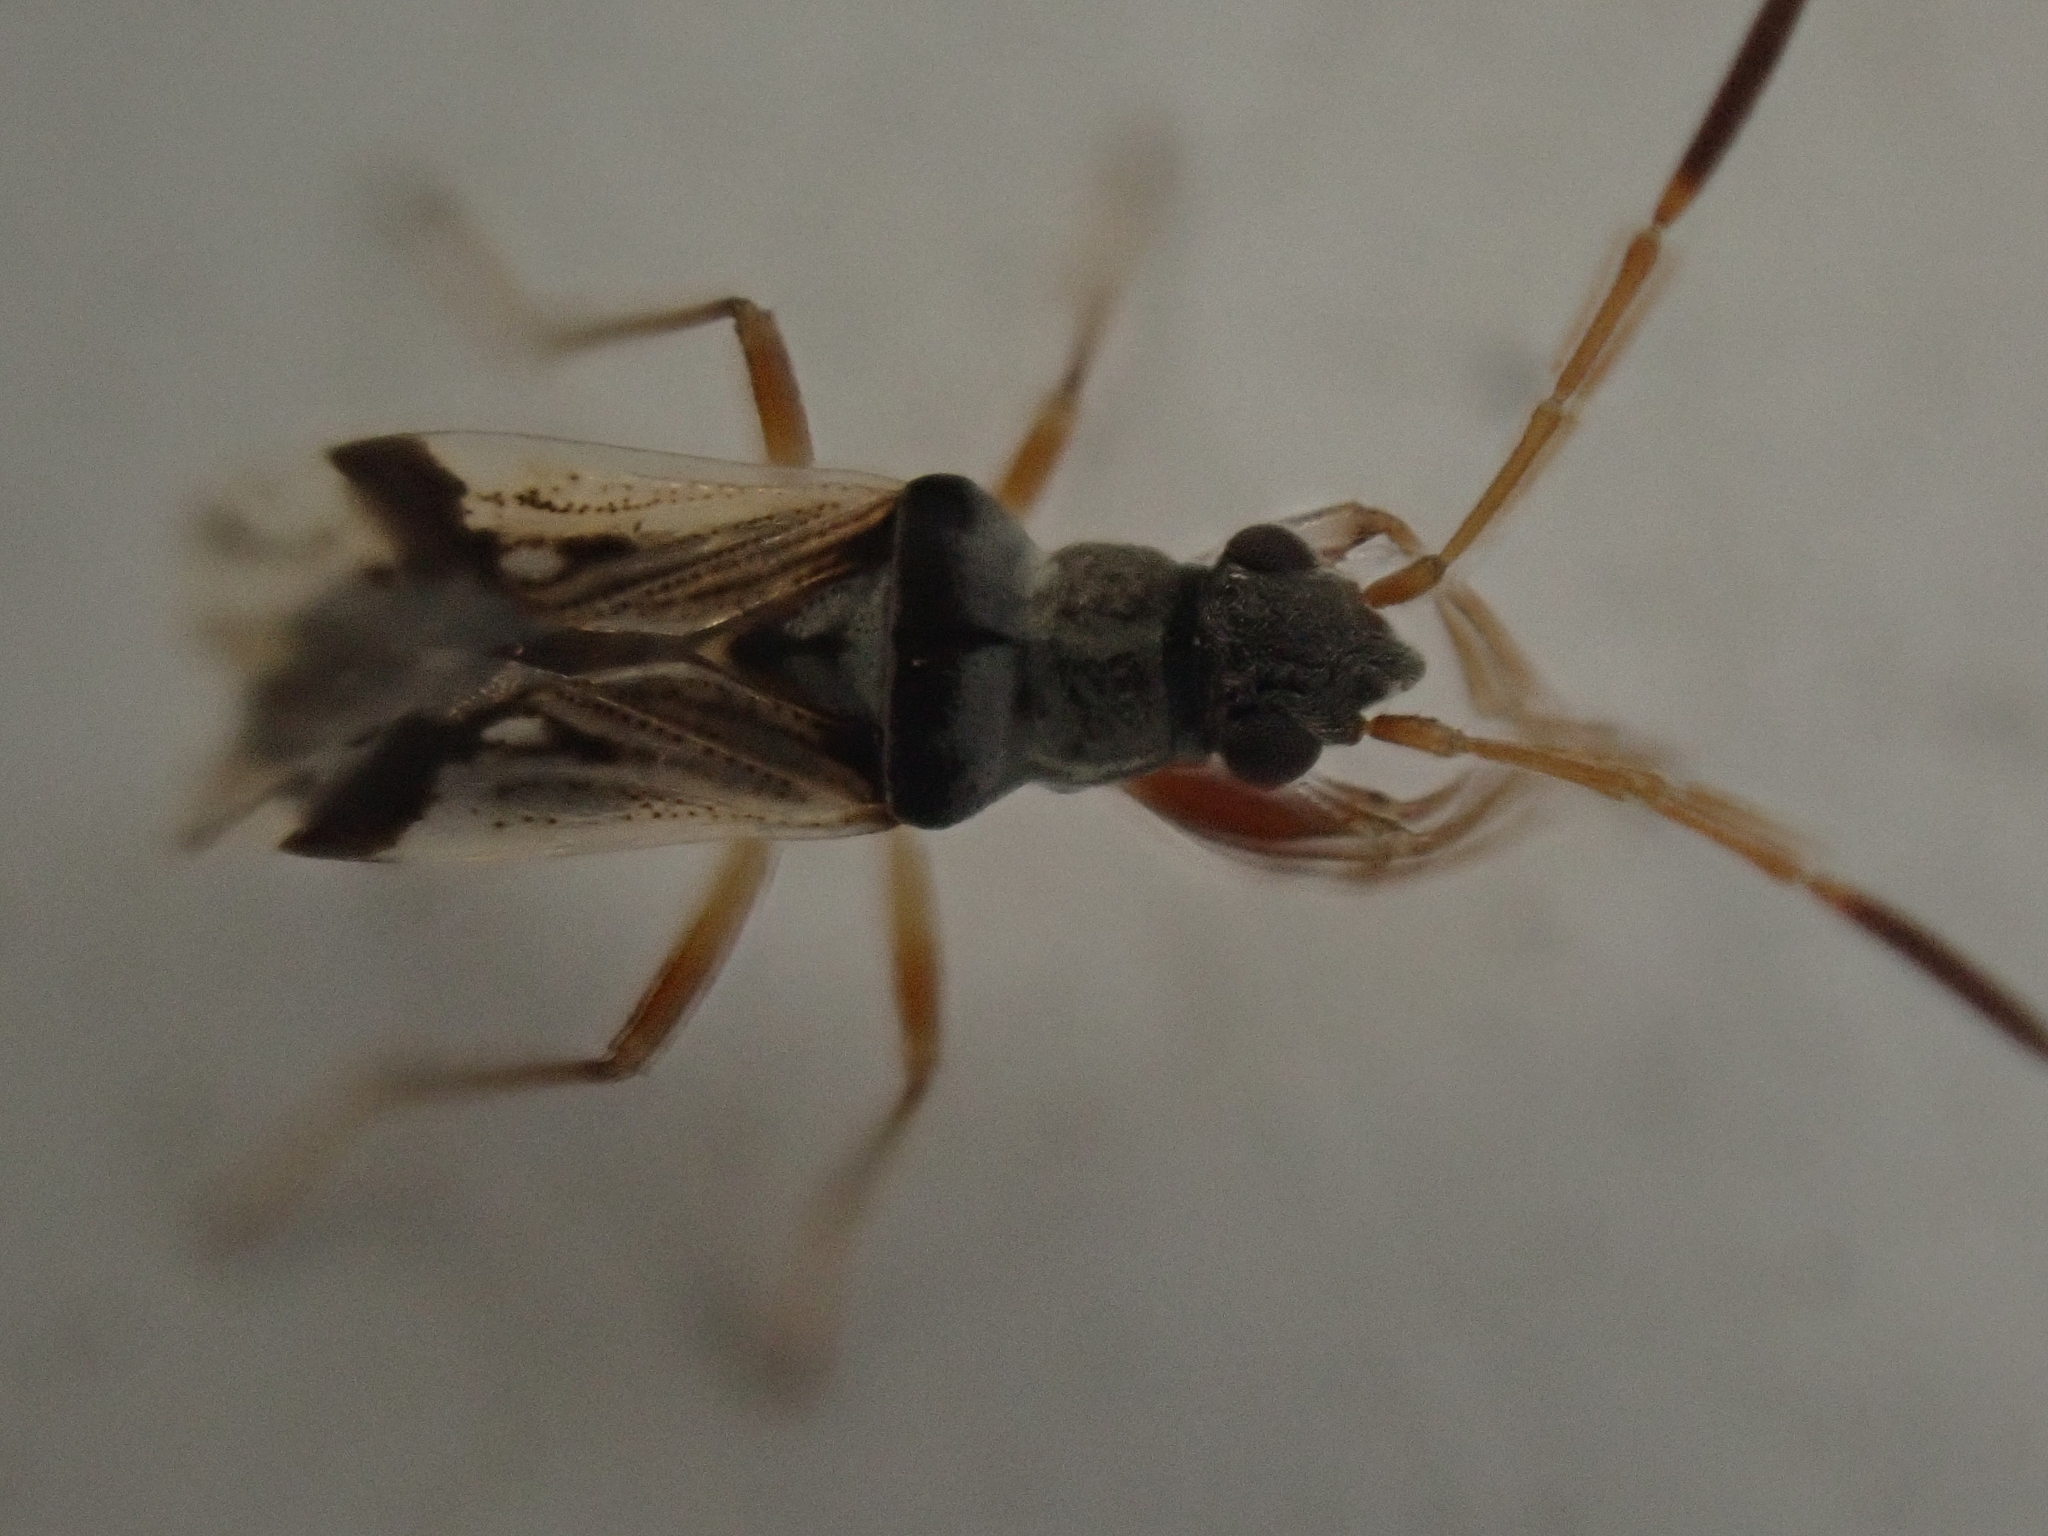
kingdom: Animalia
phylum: Arthropoda
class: Insecta
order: Hemiptera
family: Rhyparochromidae
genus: Pseudopachybrachius
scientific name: Pseudopachybrachius vinctus
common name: Dirt-colored seed bug
